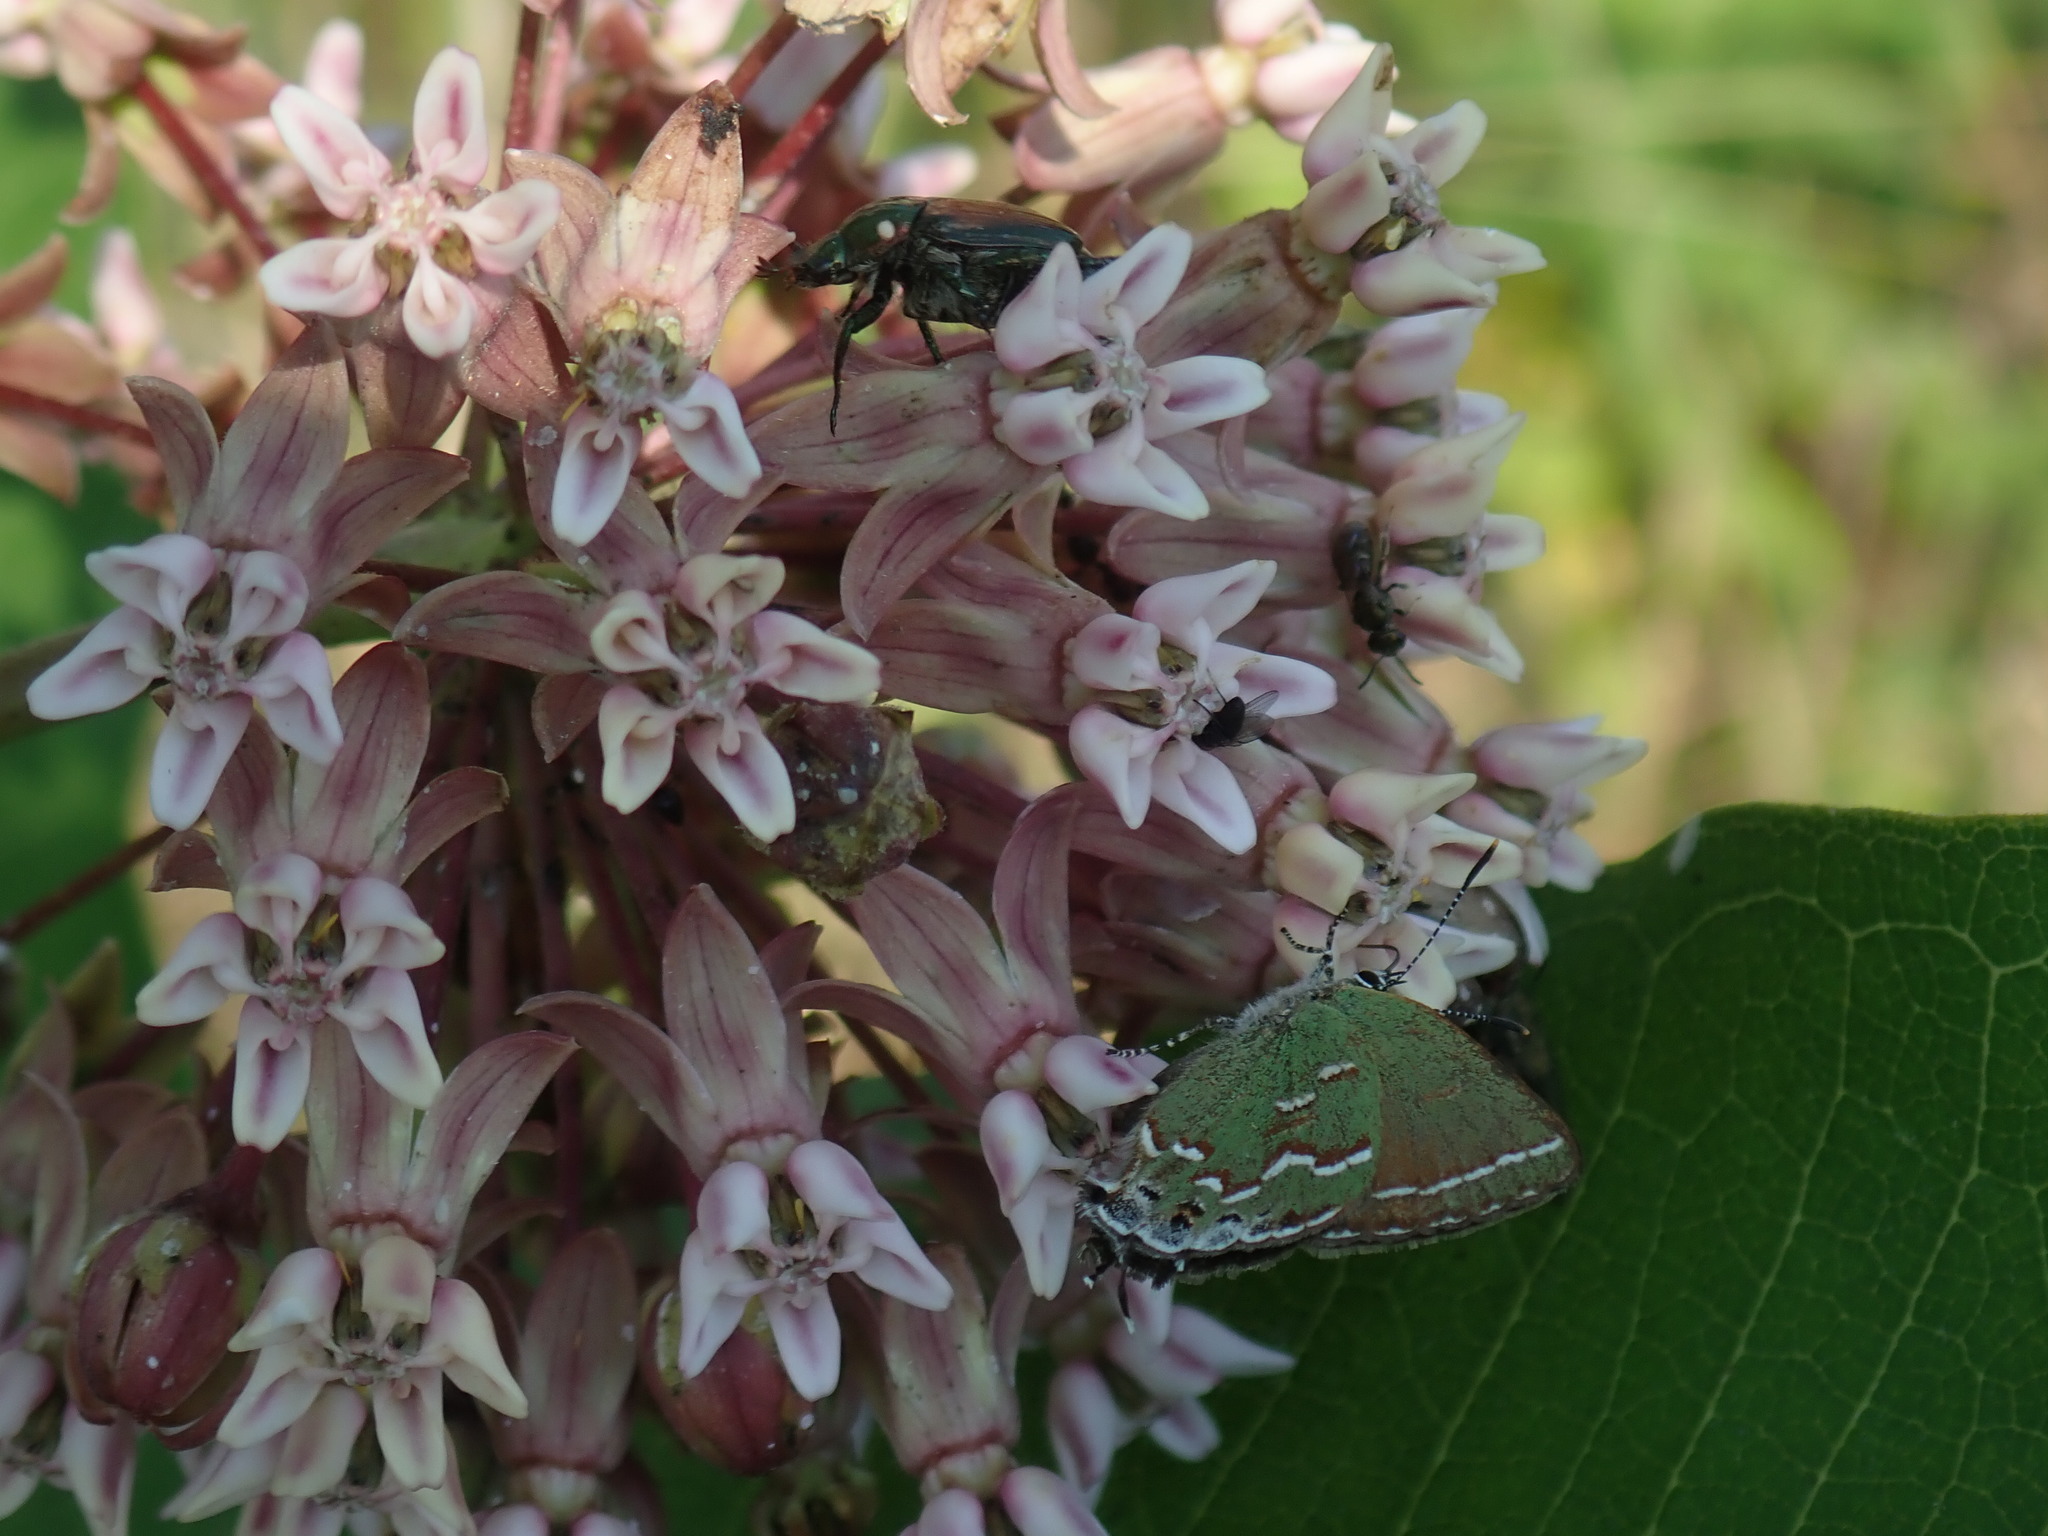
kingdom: Animalia
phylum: Arthropoda
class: Insecta
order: Lepidoptera
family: Lycaenidae
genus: Mitoura
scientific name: Mitoura gryneus
